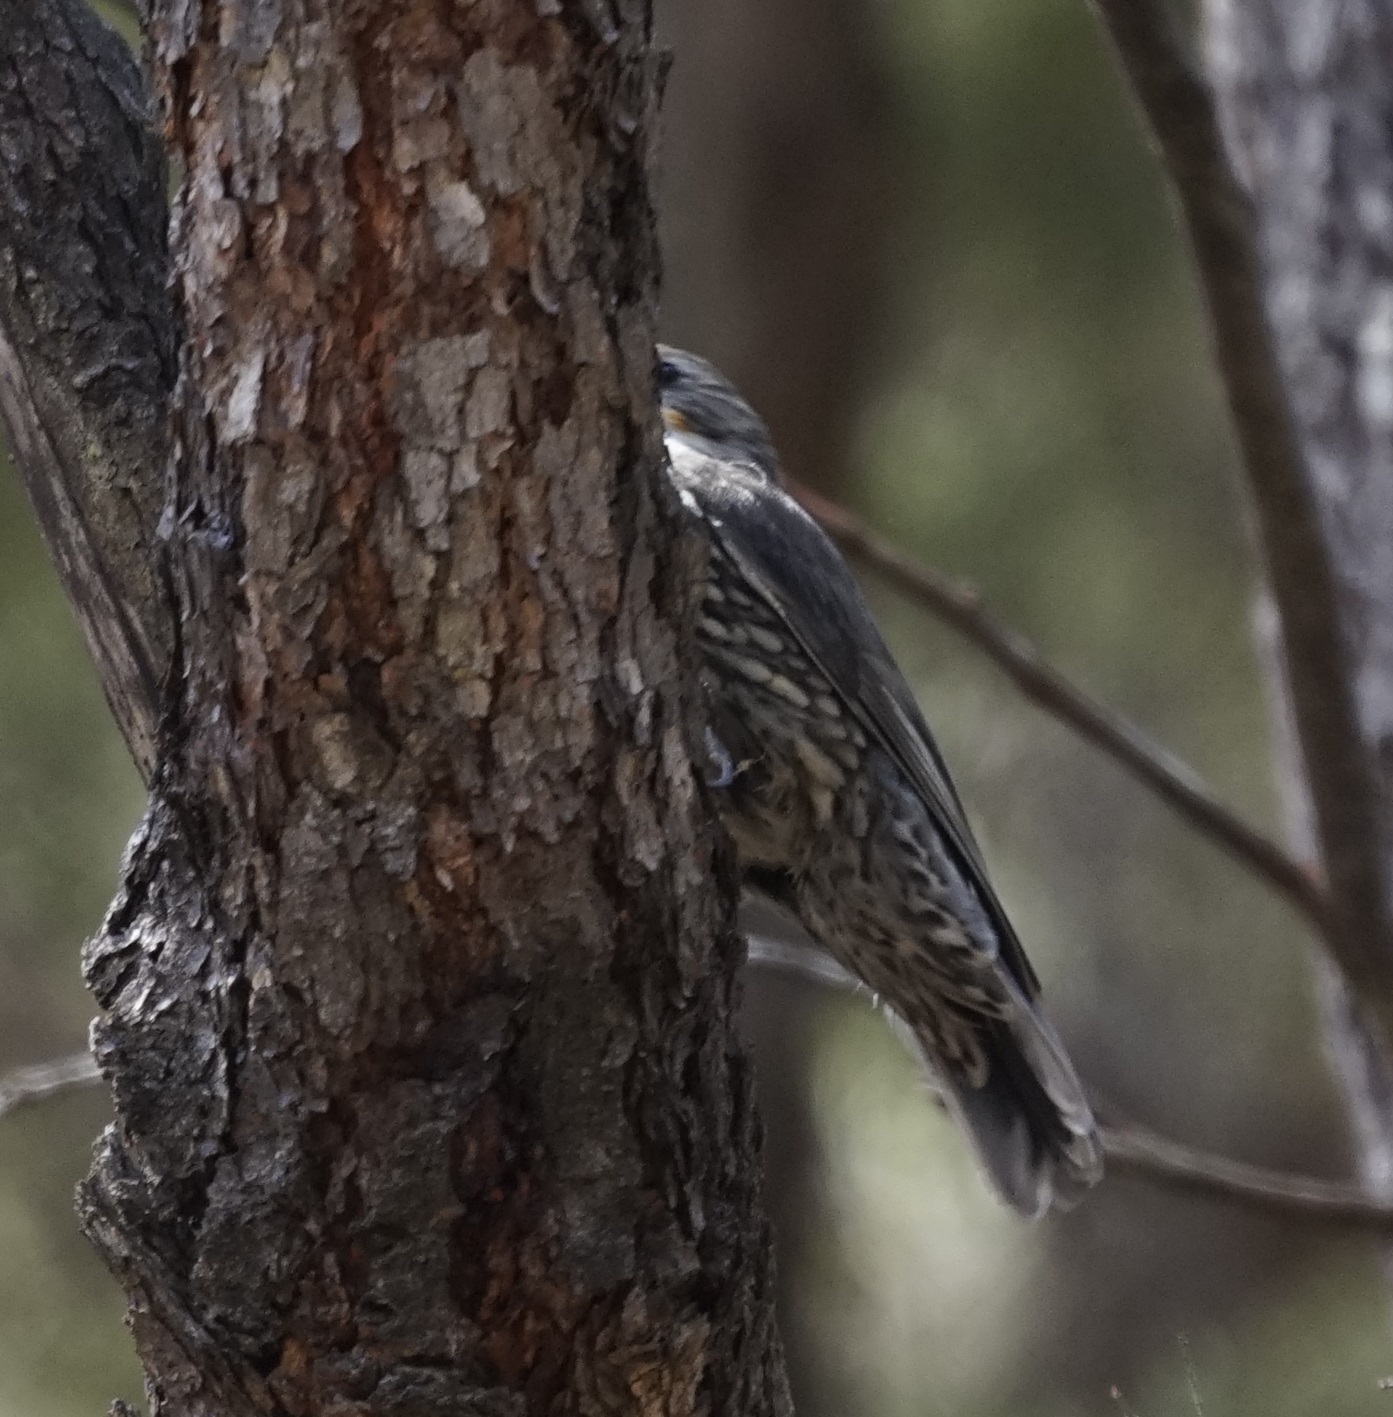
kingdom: Animalia
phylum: Chordata
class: Aves
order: Passeriformes
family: Climacteridae
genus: Cormobates
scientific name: Cormobates leucophaea
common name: White-throated treecreeper
